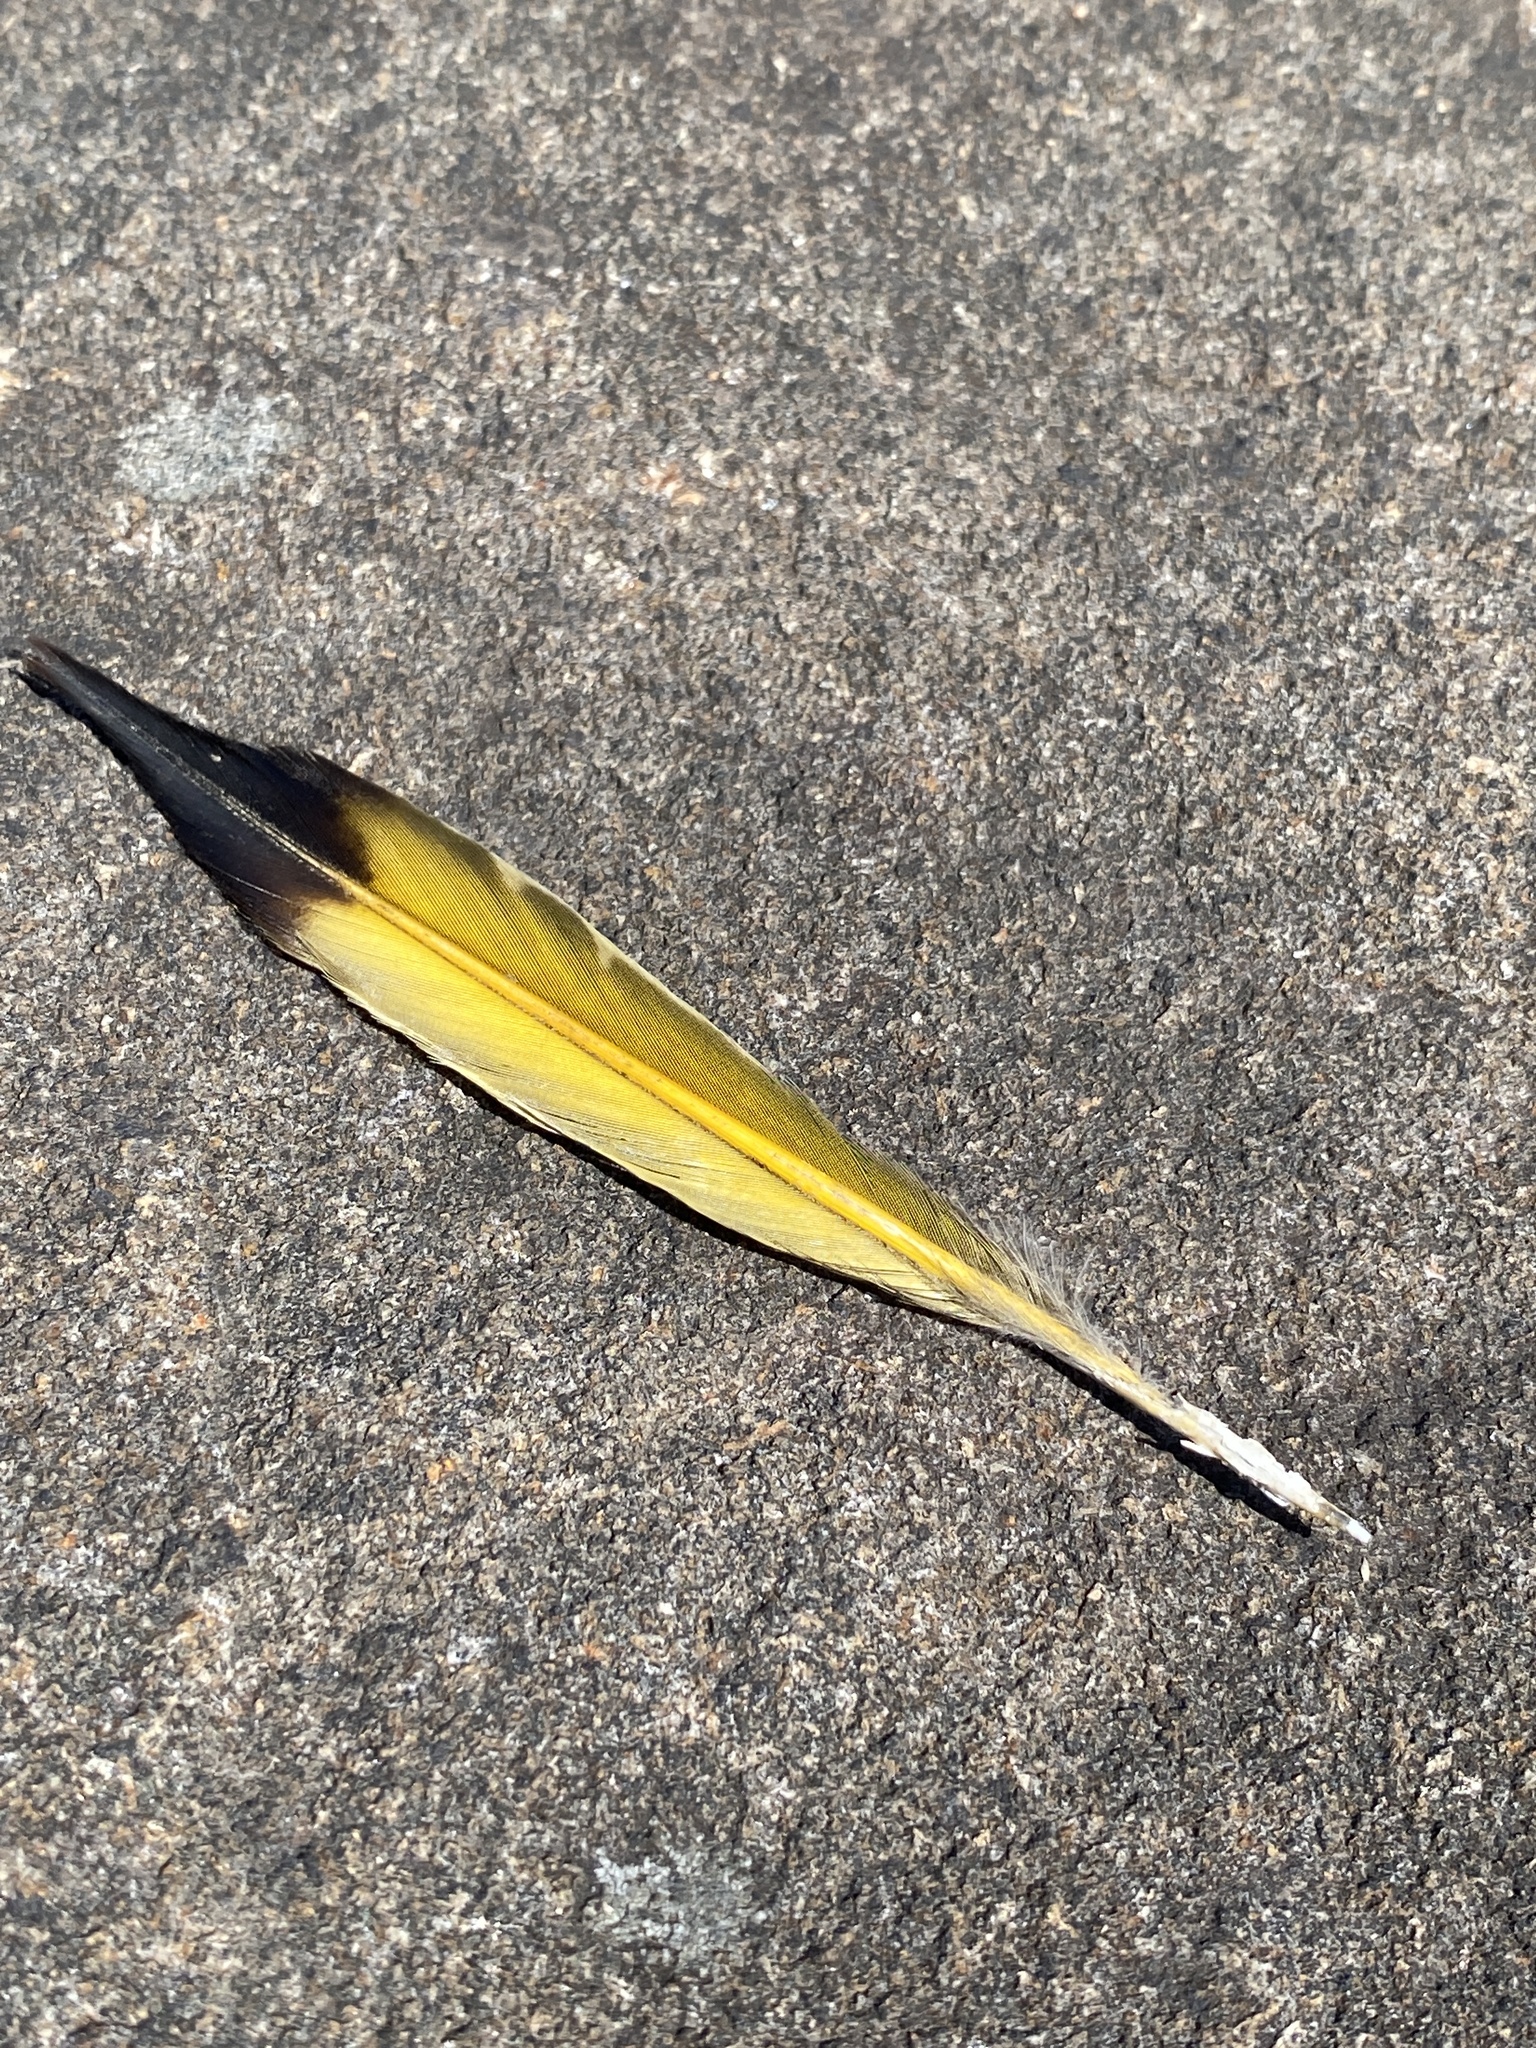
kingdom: Animalia
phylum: Chordata
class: Aves
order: Piciformes
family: Picidae
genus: Colaptes
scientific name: Colaptes auratus
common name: Northern flicker
